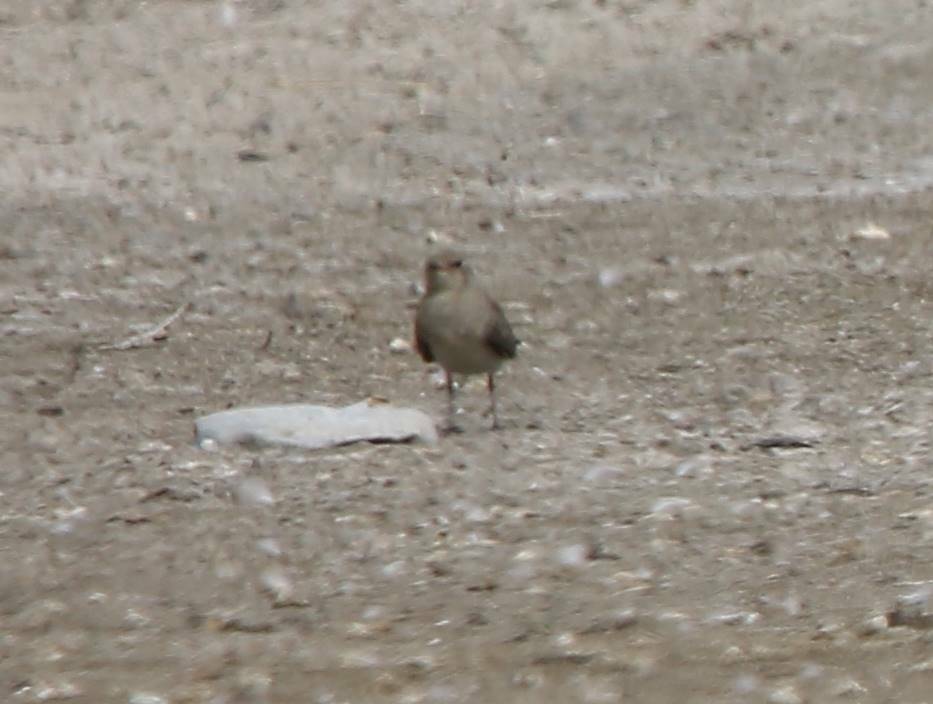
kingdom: Animalia
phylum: Chordata
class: Aves
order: Charadriiformes
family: Glareolidae
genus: Glareola
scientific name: Glareola pratincola
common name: Collared pratincole
